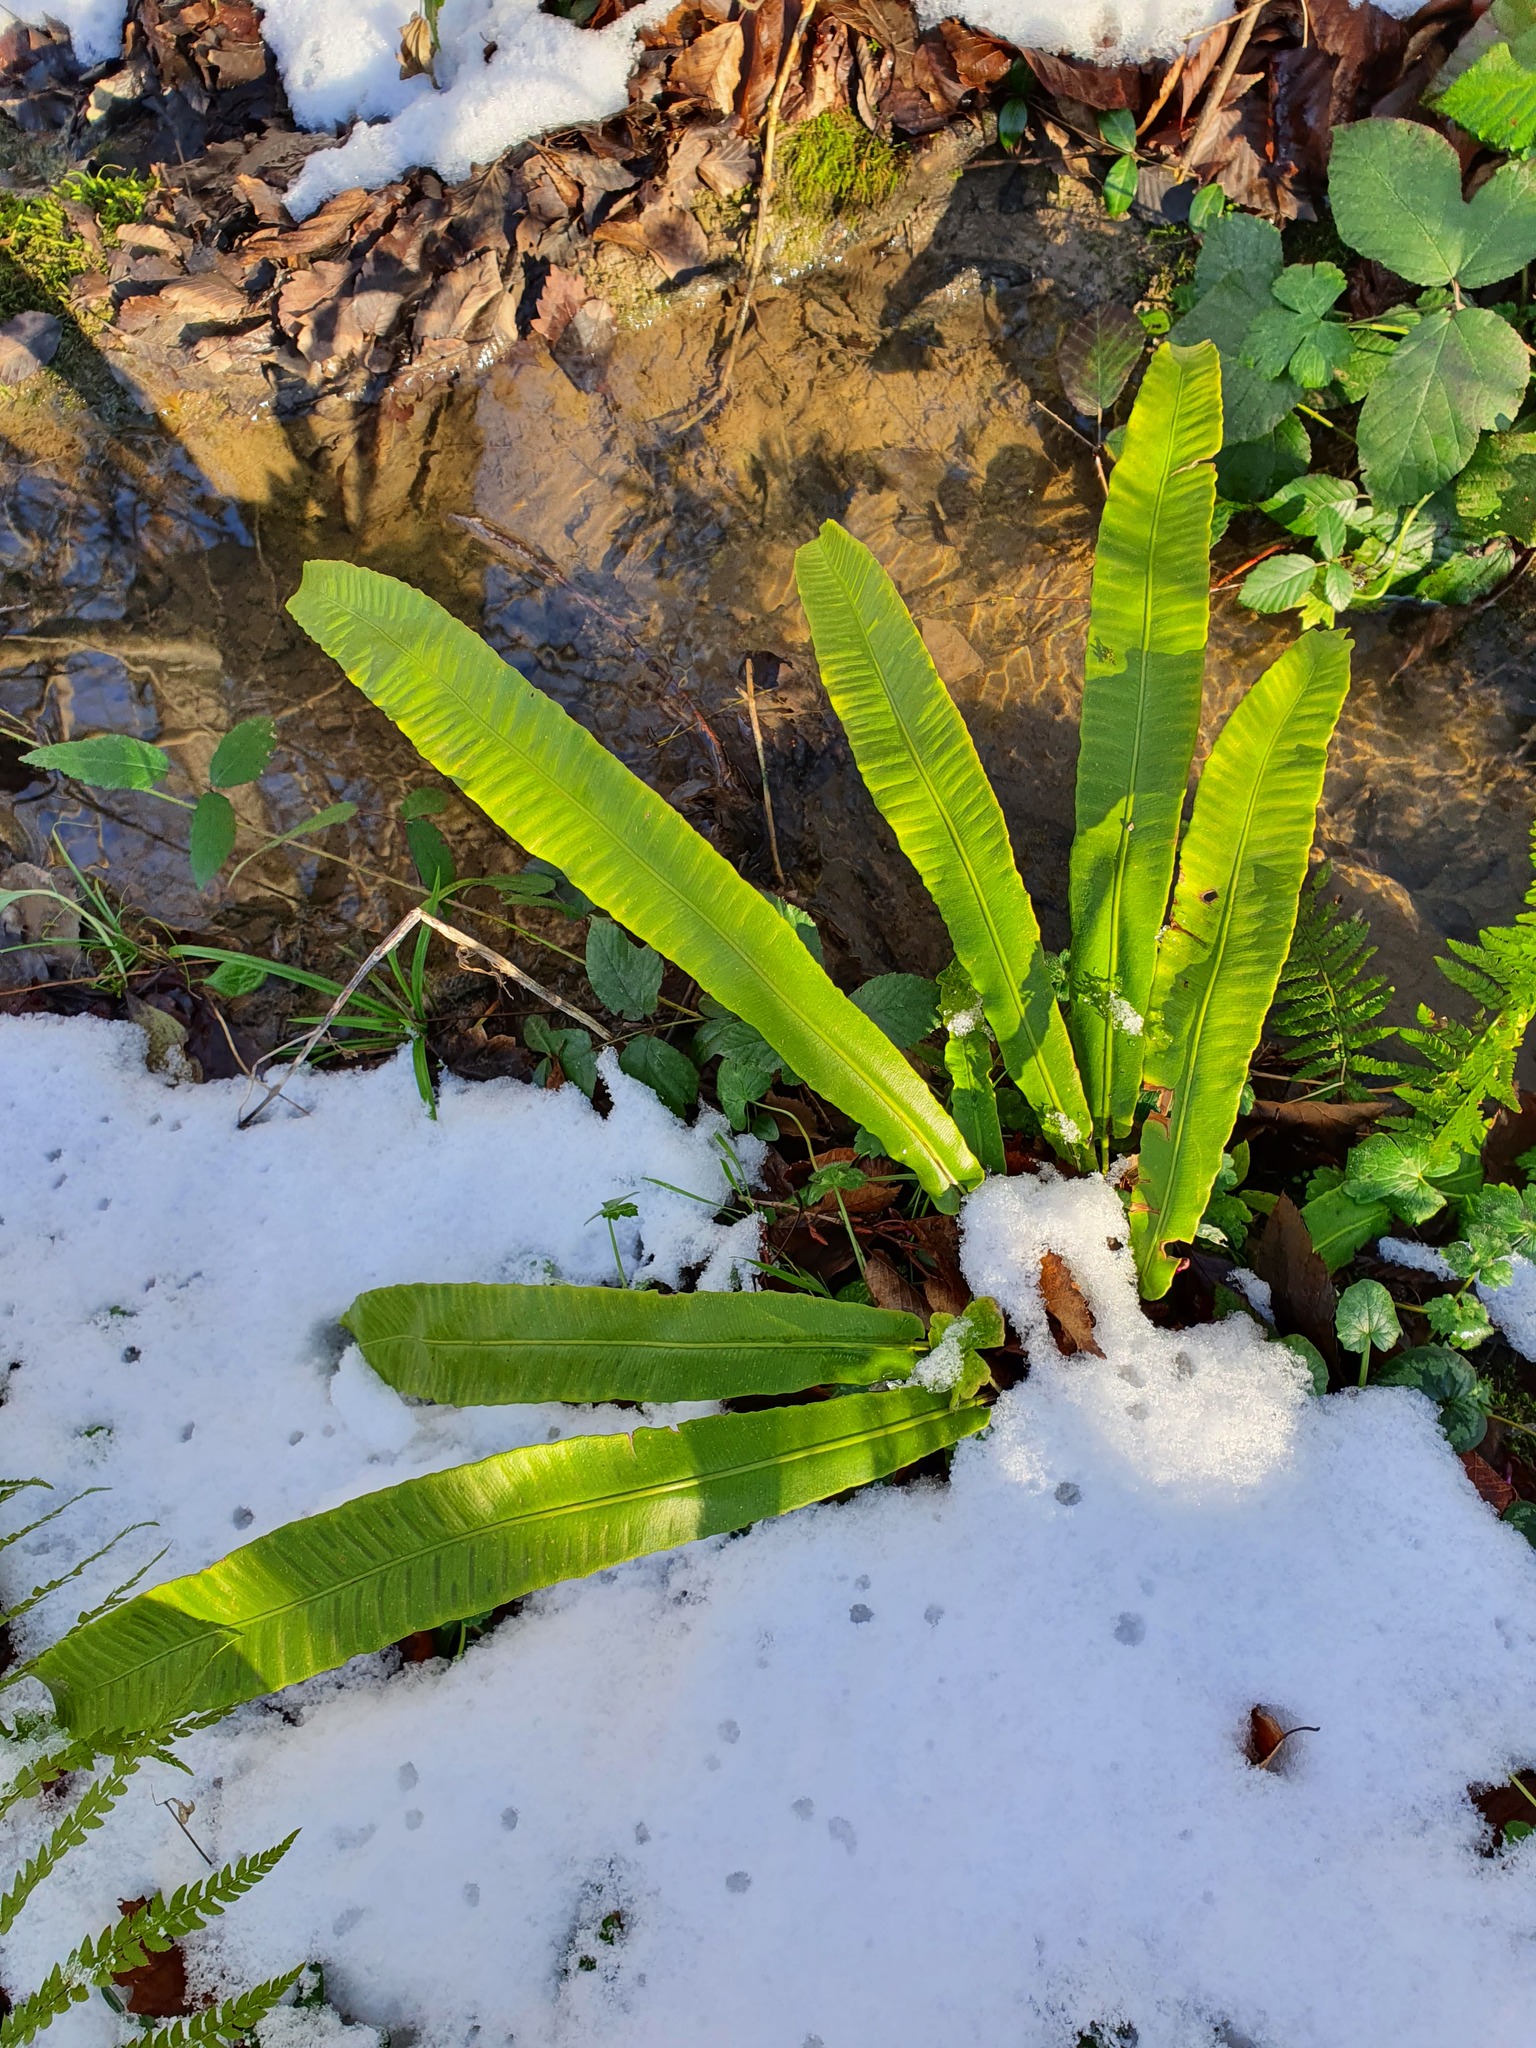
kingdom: Plantae
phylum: Tracheophyta
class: Polypodiopsida
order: Polypodiales
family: Aspleniaceae
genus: Asplenium
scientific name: Asplenium scolopendrium
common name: Hart's-tongue fern
